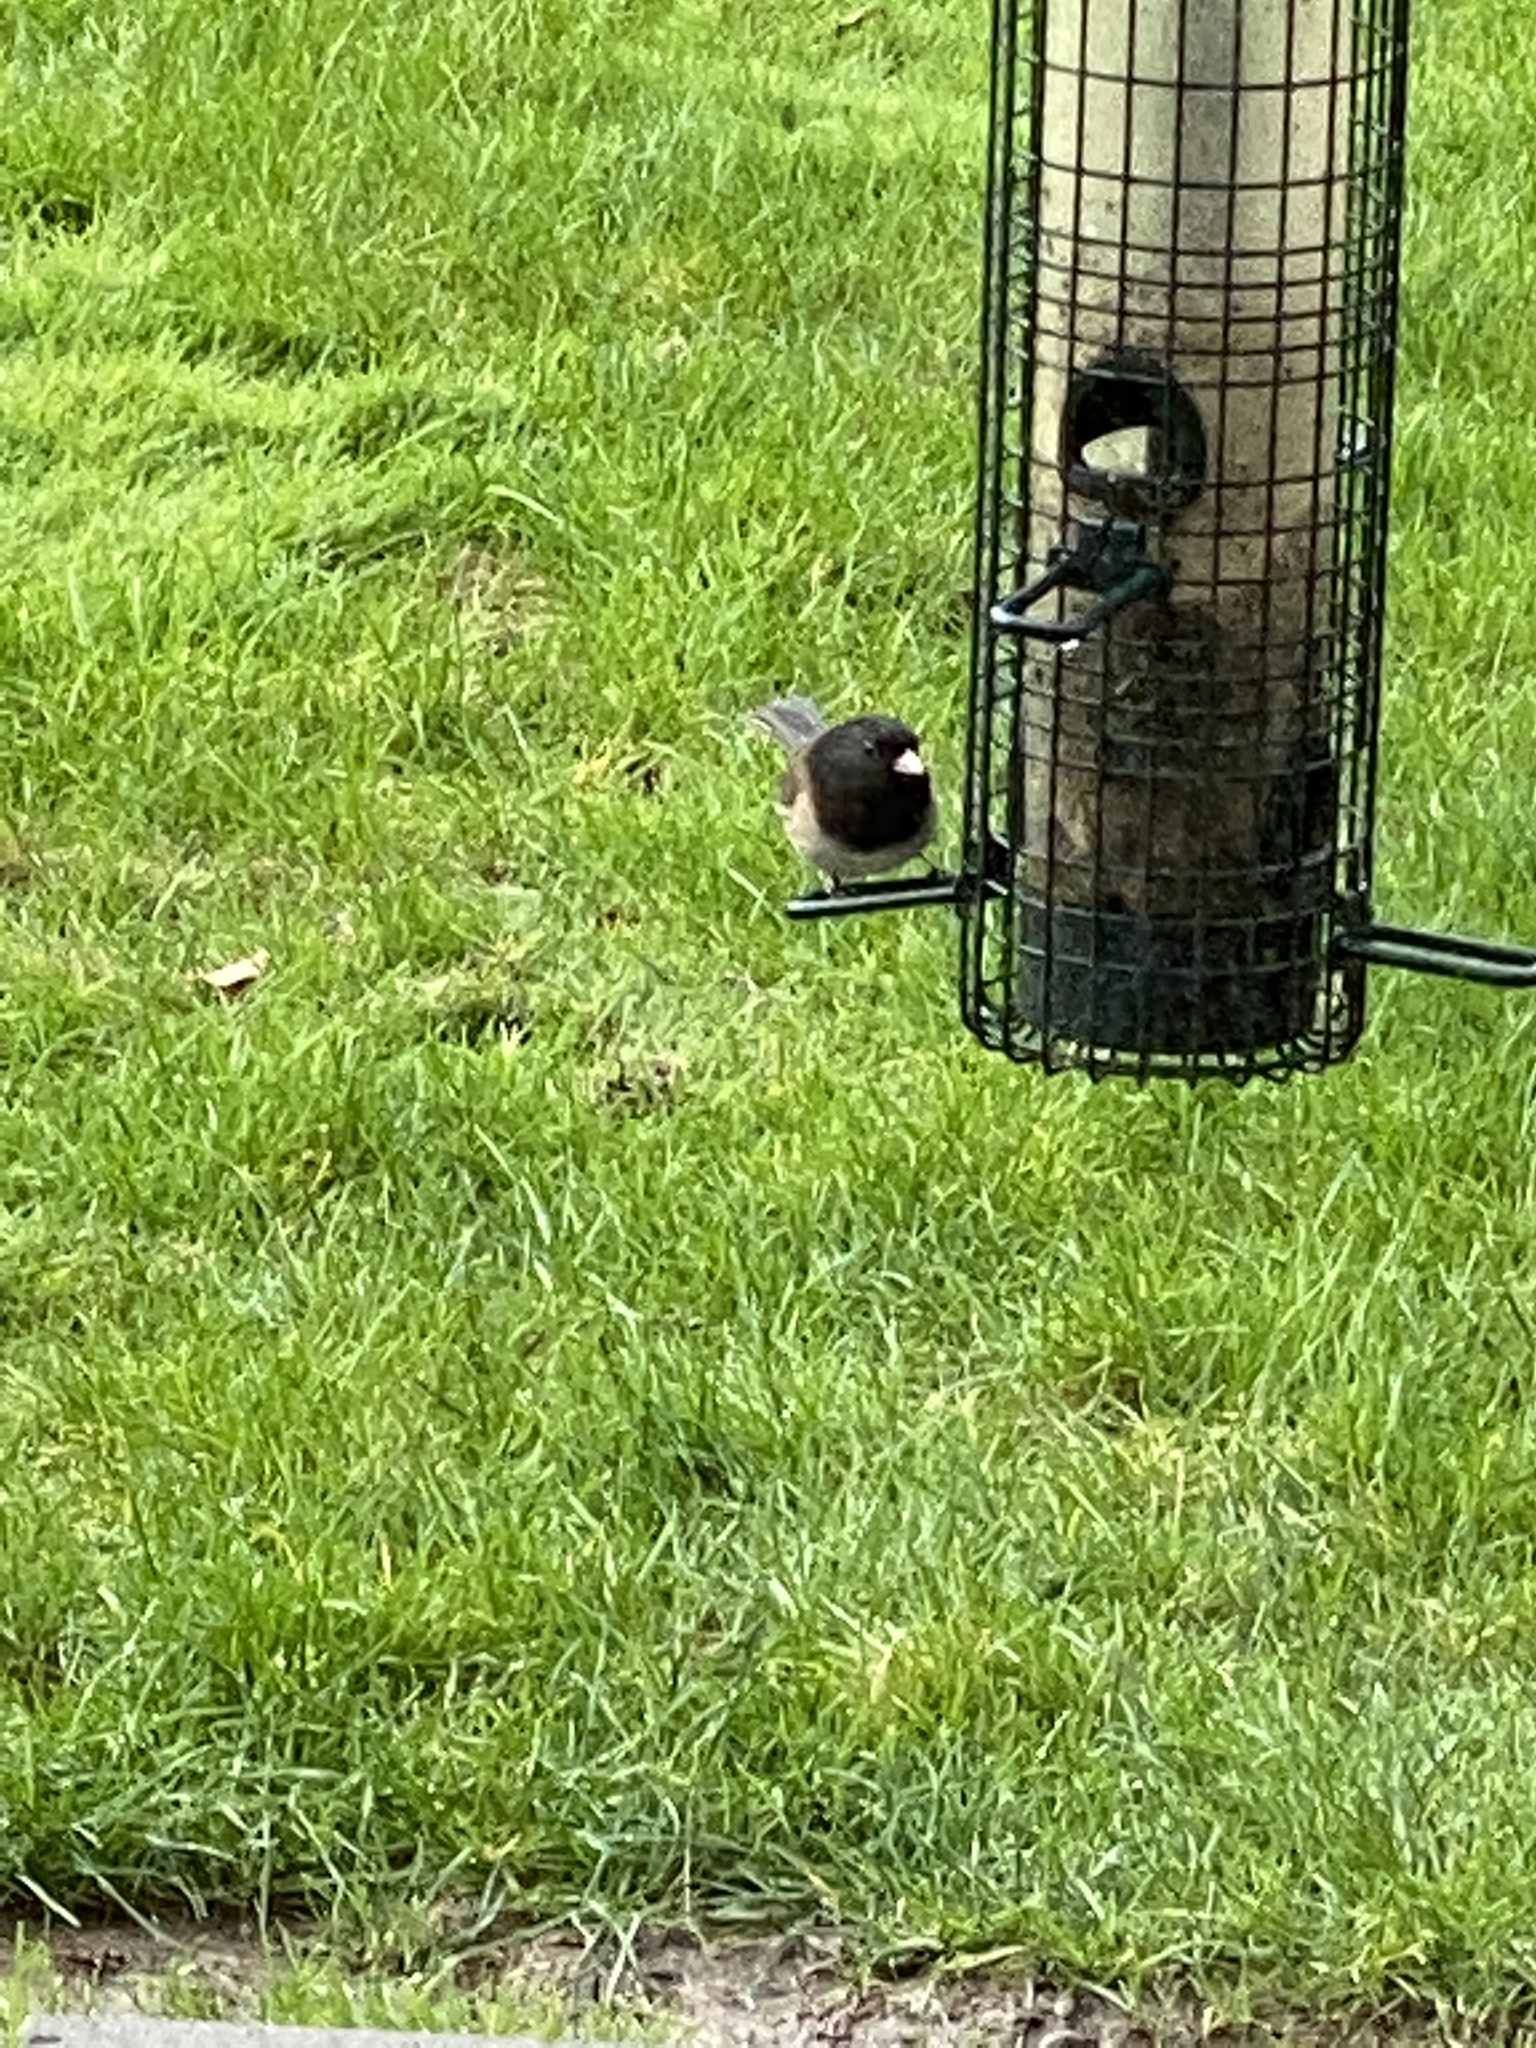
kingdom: Animalia
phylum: Chordata
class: Aves
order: Passeriformes
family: Passerellidae
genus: Junco
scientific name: Junco hyemalis
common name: Dark-eyed junco
